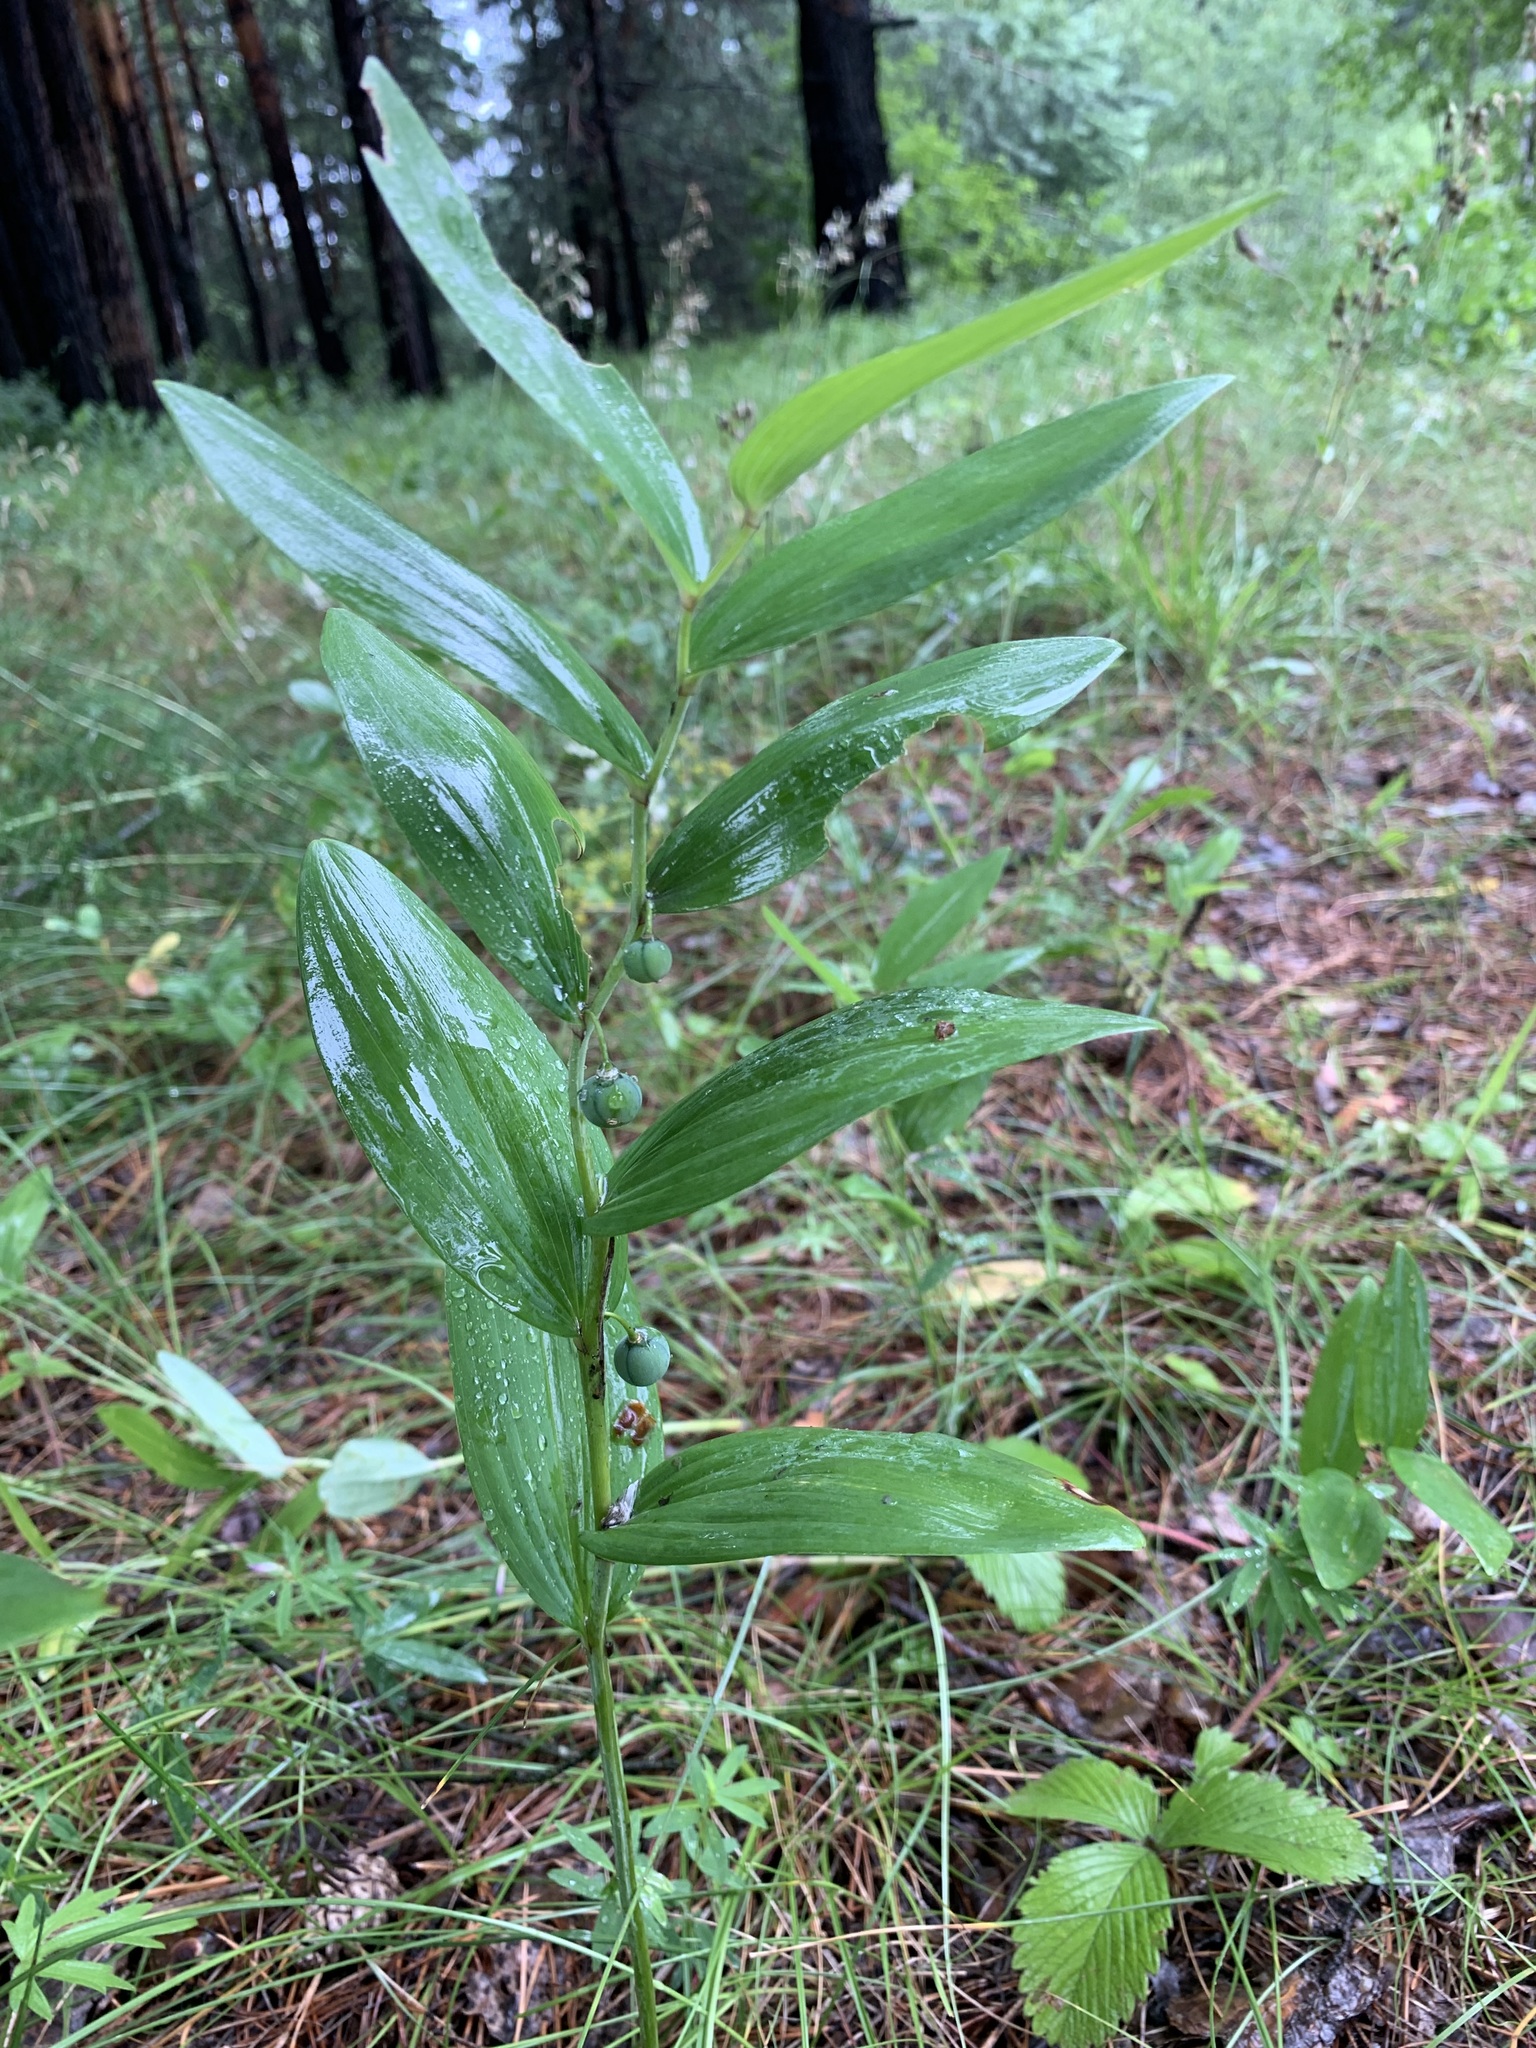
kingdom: Plantae
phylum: Tracheophyta
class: Liliopsida
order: Asparagales
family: Asparagaceae
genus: Polygonatum
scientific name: Polygonatum odoratum
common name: Angular solomon's-seal
